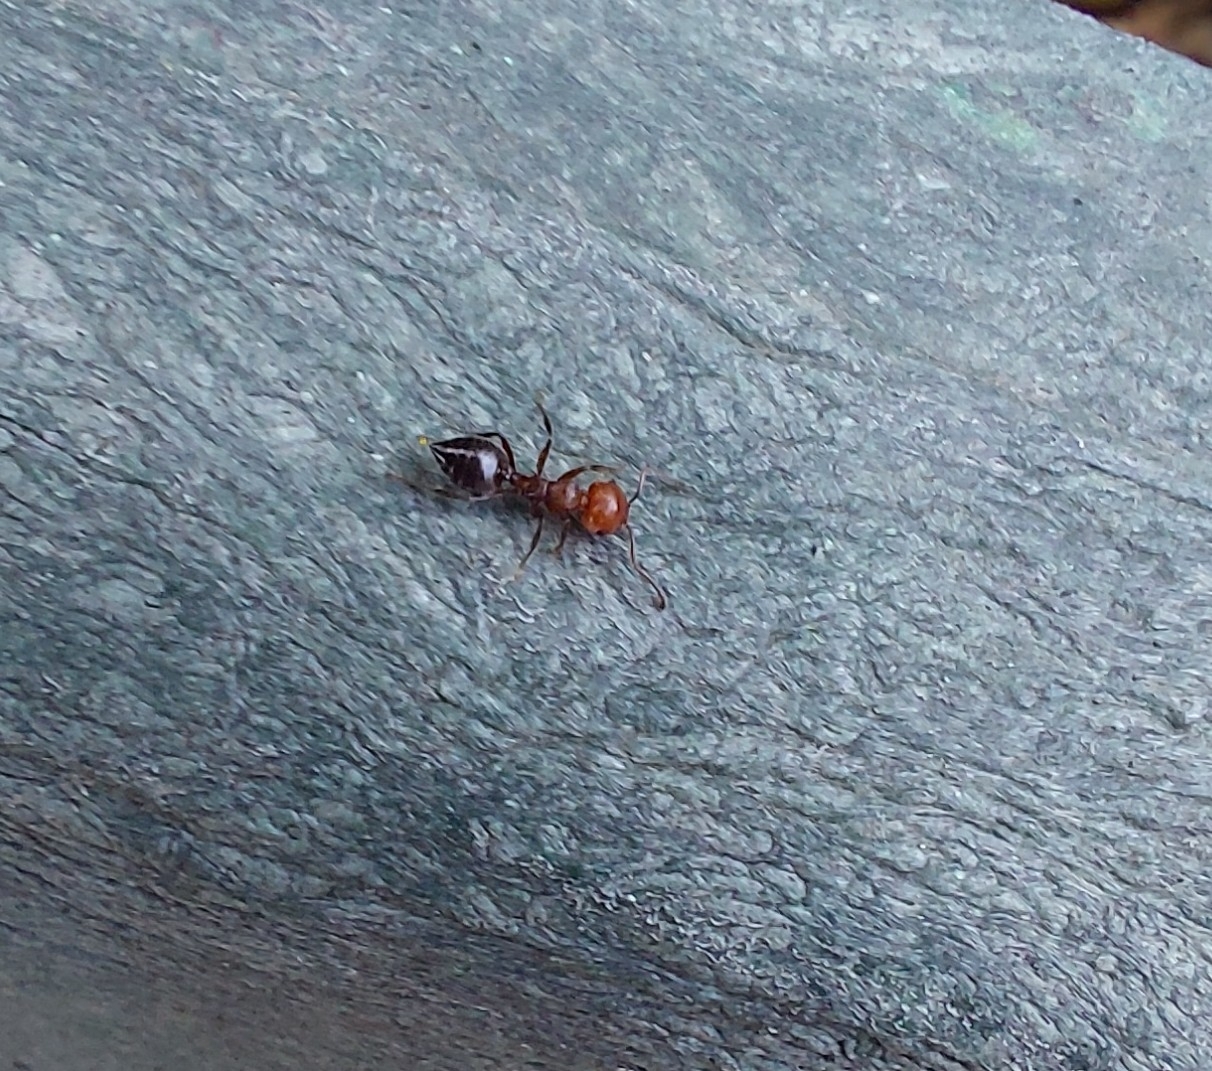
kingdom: Animalia
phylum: Arthropoda
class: Insecta
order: Hymenoptera
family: Formicidae
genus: Crematogaster
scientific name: Crematogaster scutellaris
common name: Fourmi du liège
